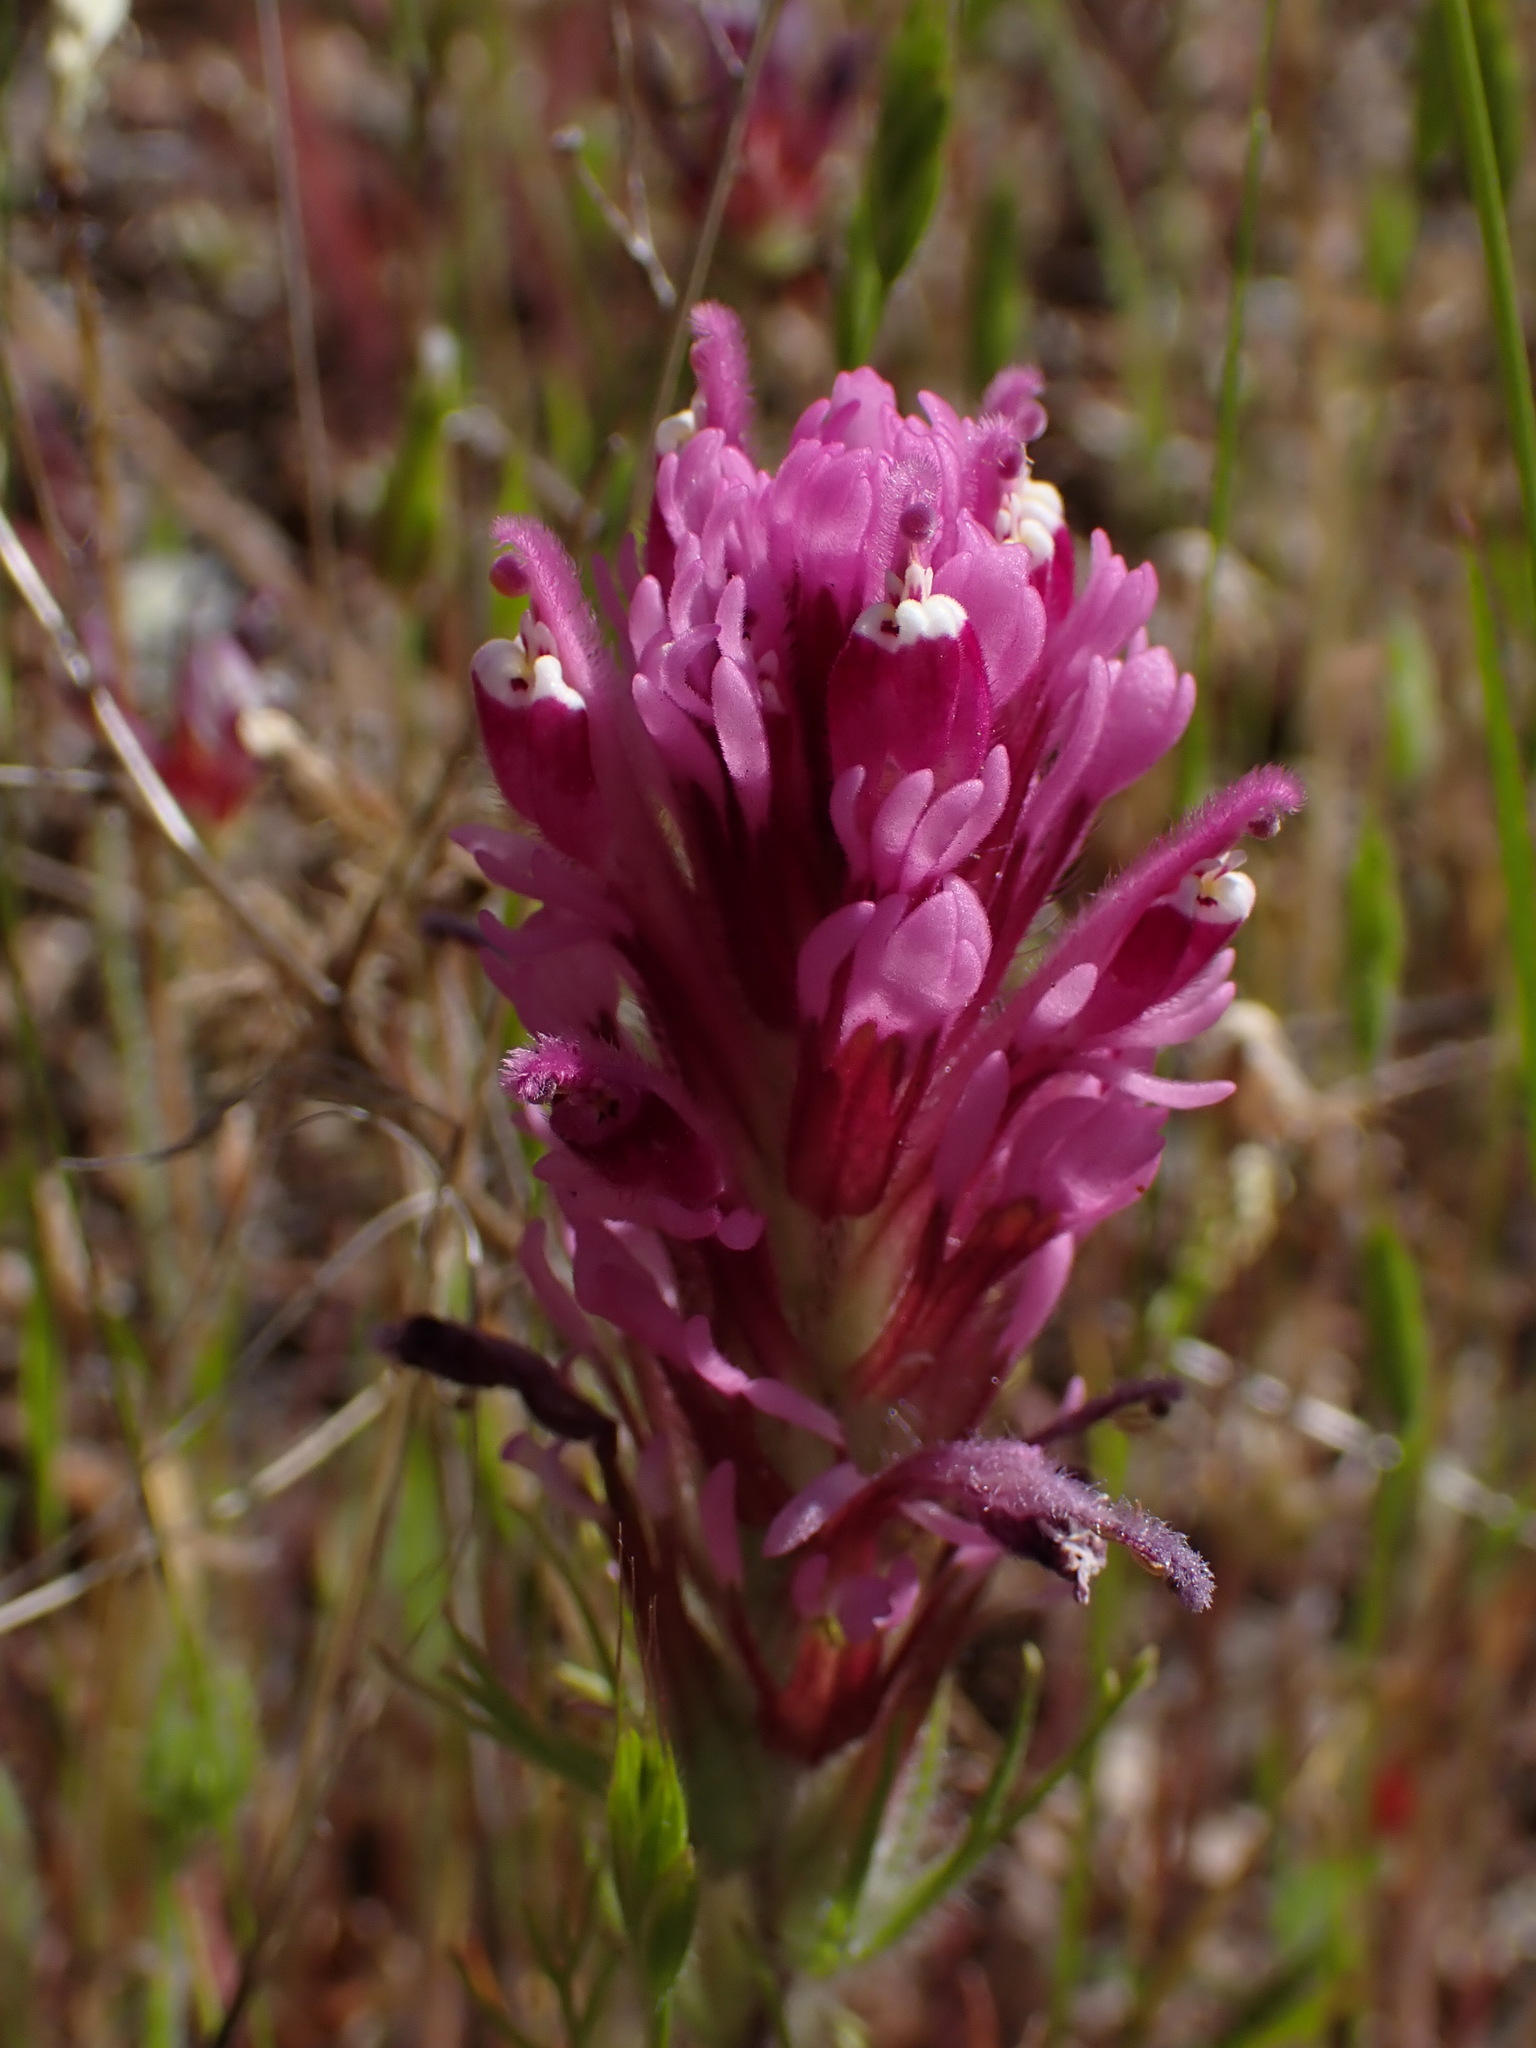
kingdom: Plantae
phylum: Tracheophyta
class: Magnoliopsida
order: Lamiales
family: Orobanchaceae
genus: Castilleja
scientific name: Castilleja exserta
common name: Purple owl-clover
